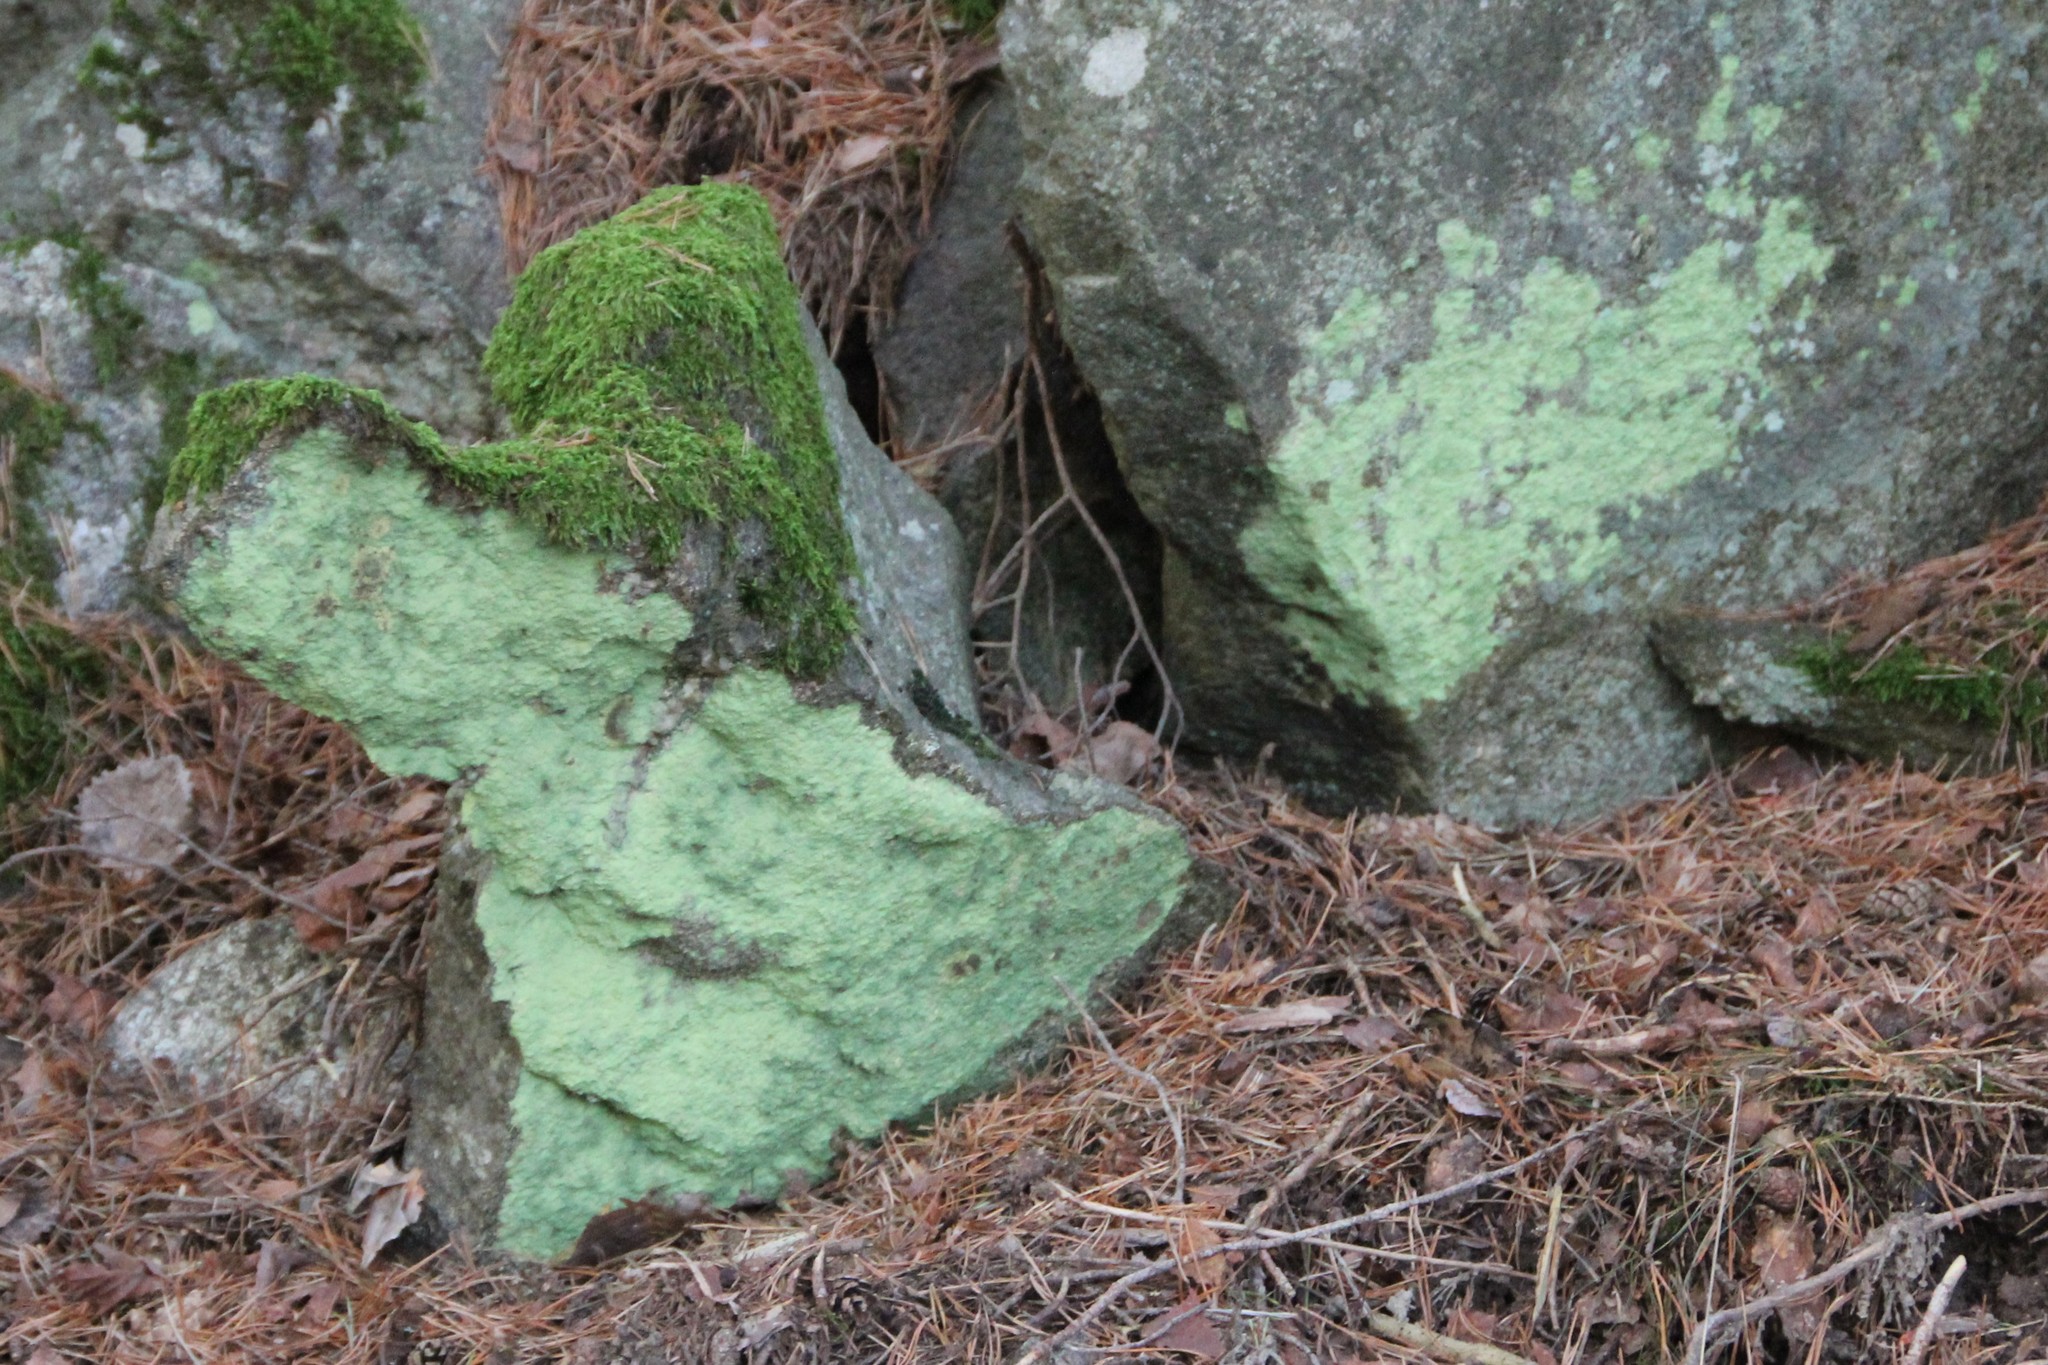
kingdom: Fungi
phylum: Ascomycota
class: Arthoniomycetes
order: Arthoniales
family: Chrysotrichaceae
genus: Chrysothrix
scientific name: Chrysothrix chlorina
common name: Chlorine dust lichen
